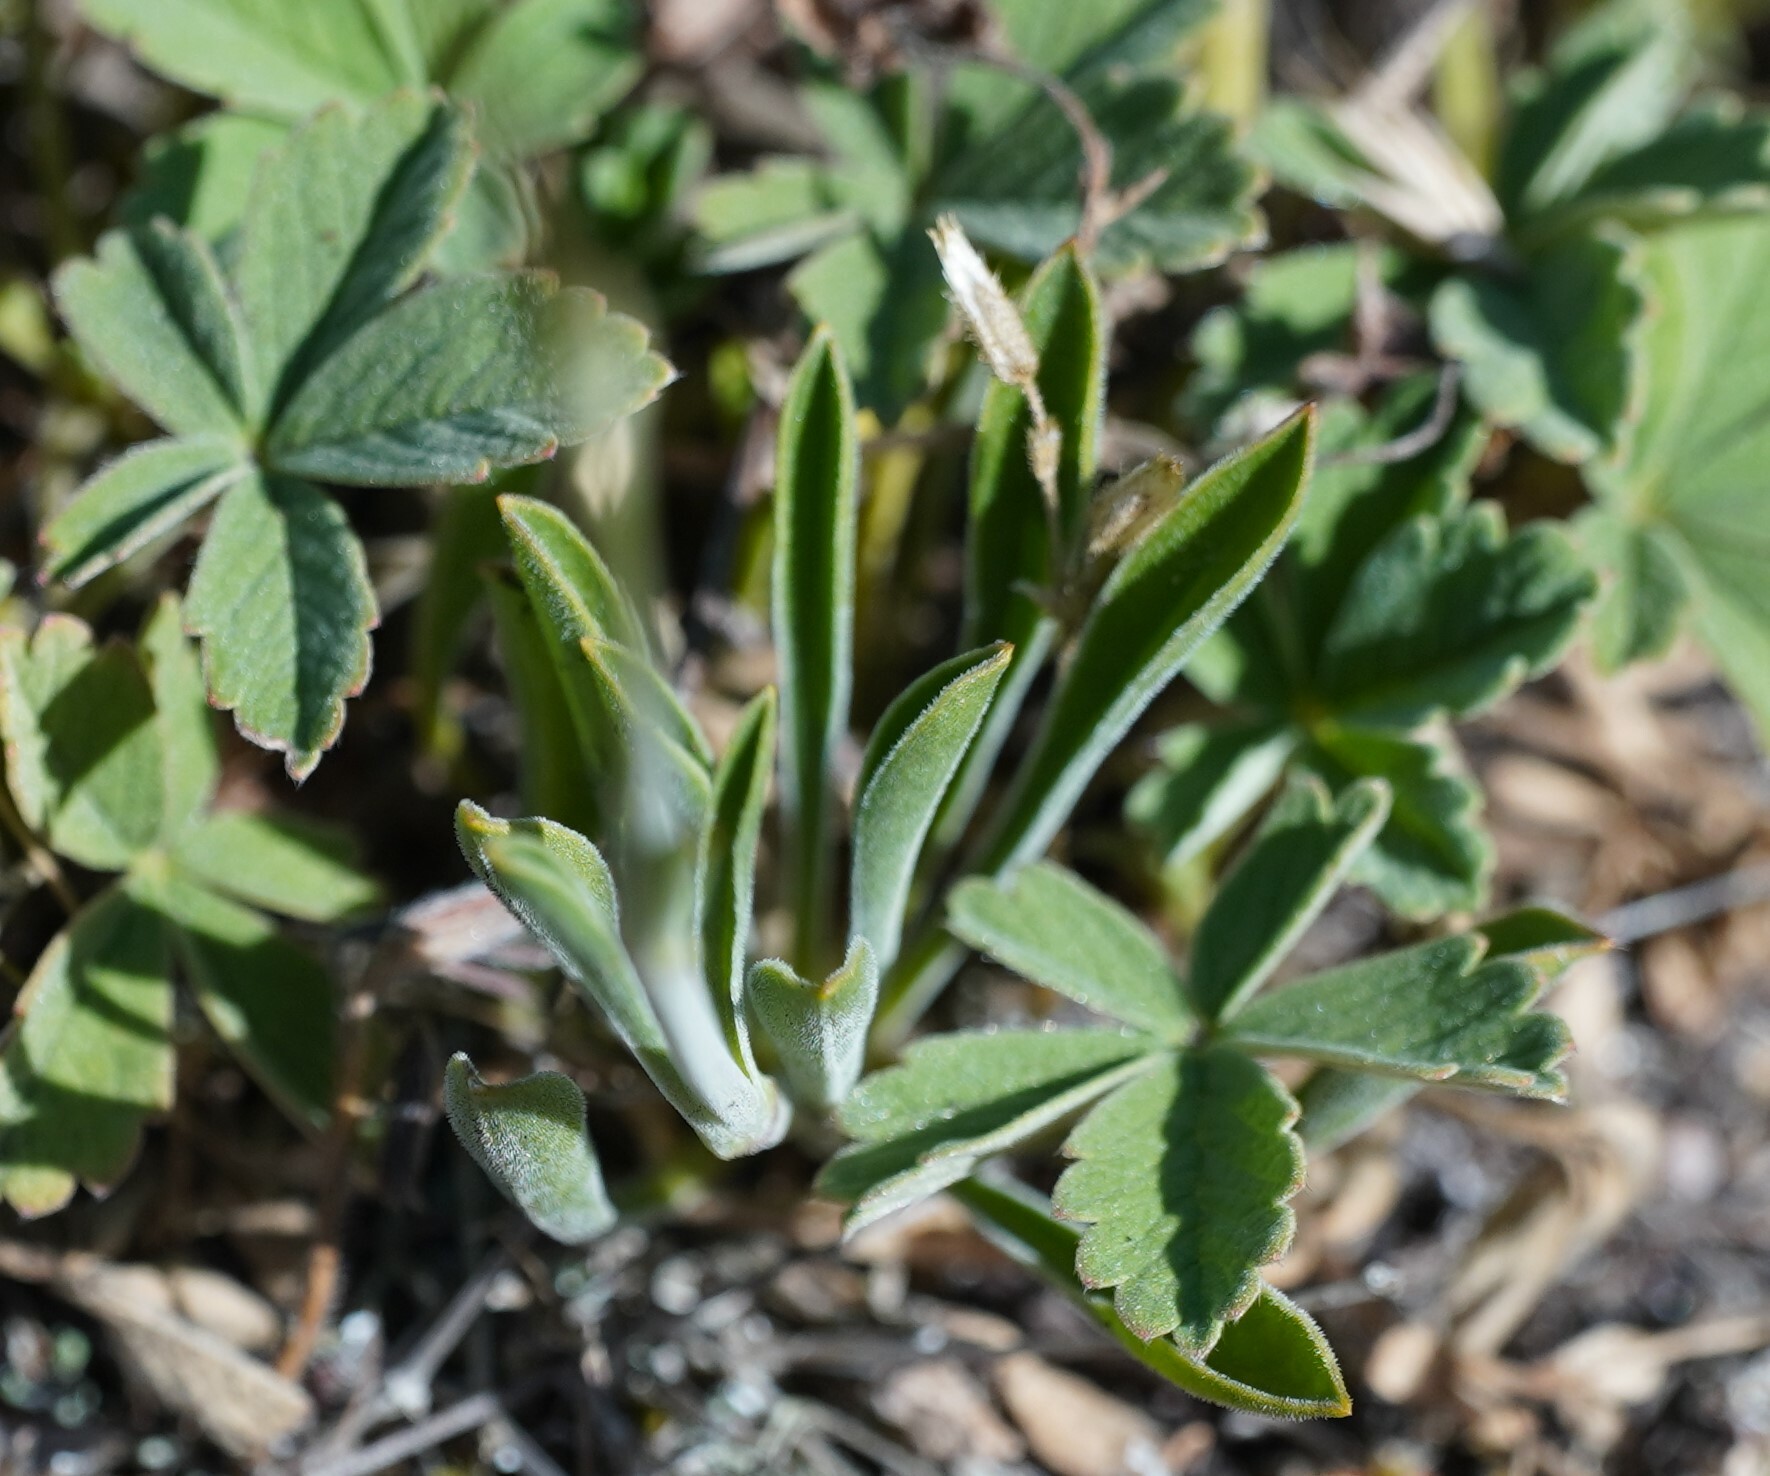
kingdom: Plantae
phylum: Tracheophyta
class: Magnoliopsida
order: Caryophyllales
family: Caryophyllaceae
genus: Silene
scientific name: Silene otites
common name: Spanish catchfly
